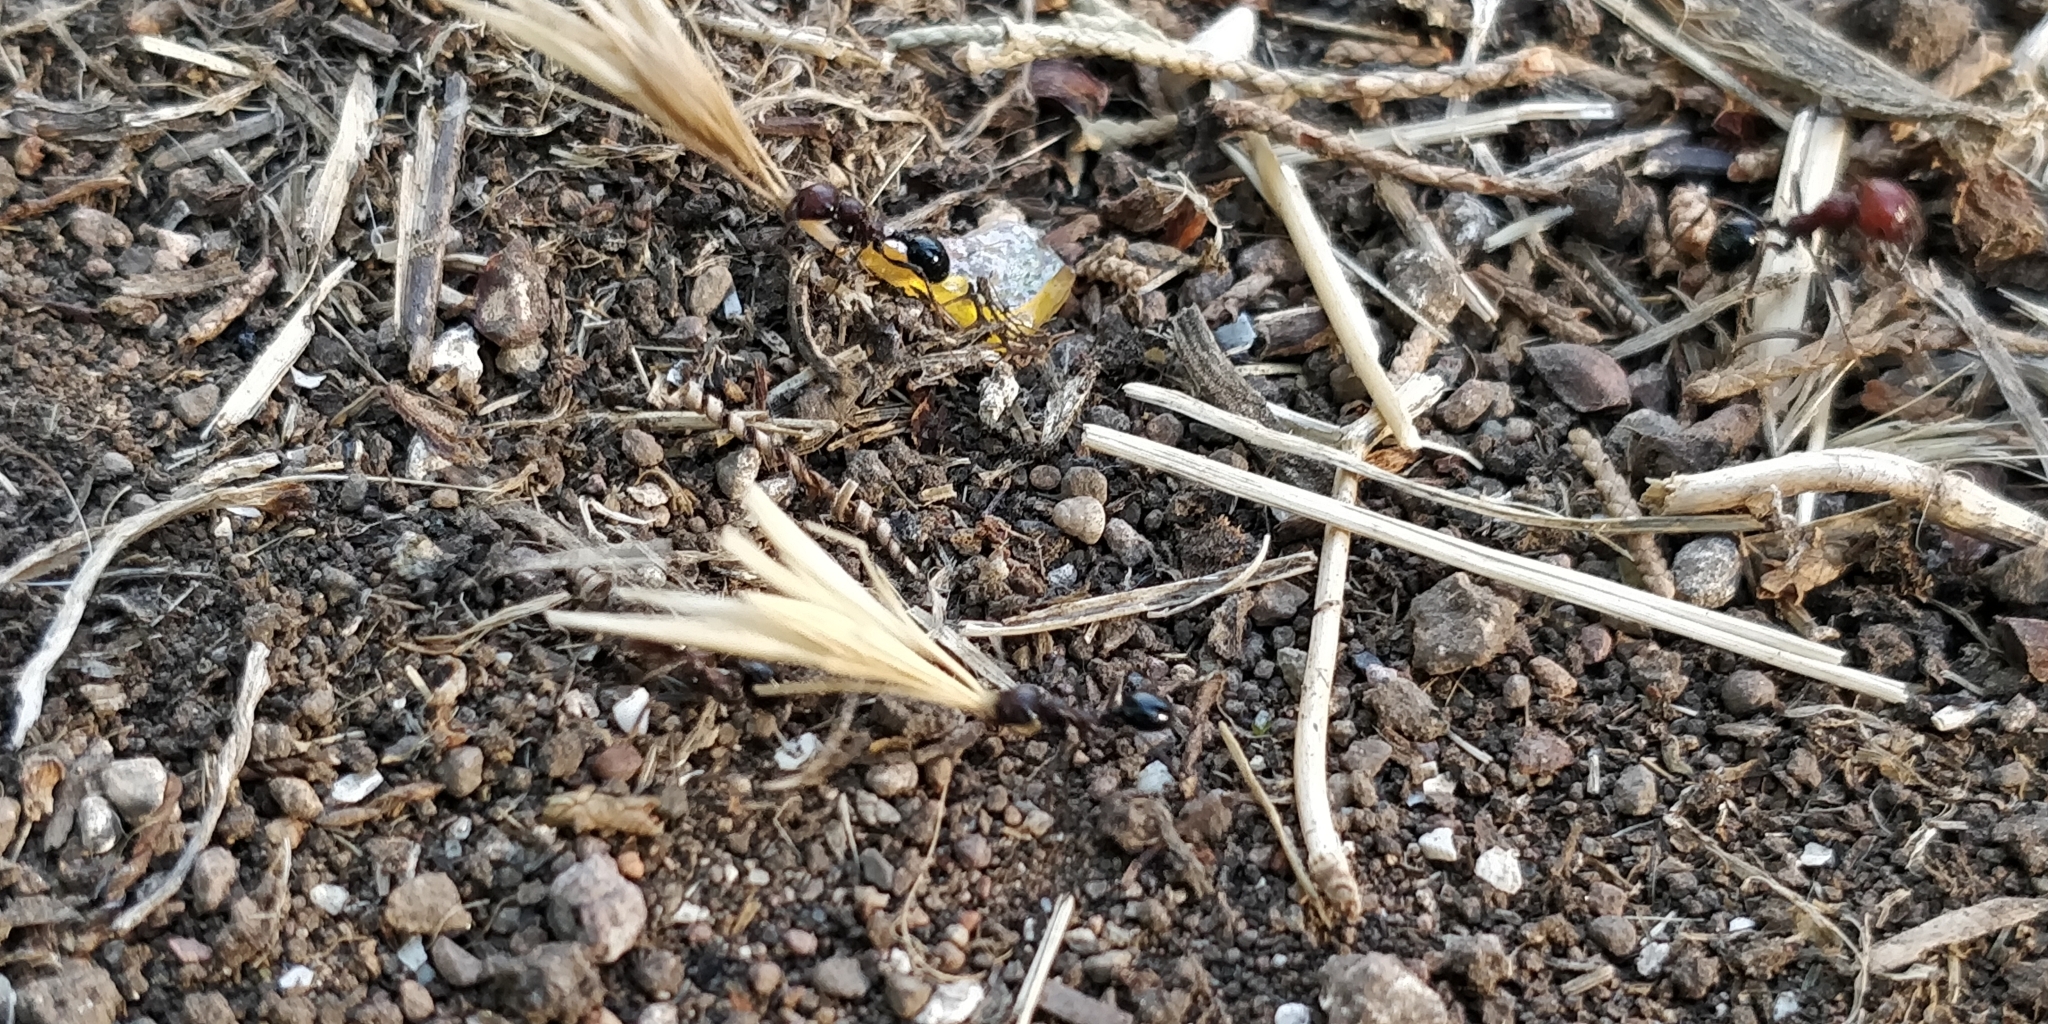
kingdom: Animalia
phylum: Arthropoda
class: Insecta
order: Hymenoptera
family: Formicidae
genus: Messor
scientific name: Messor minor
